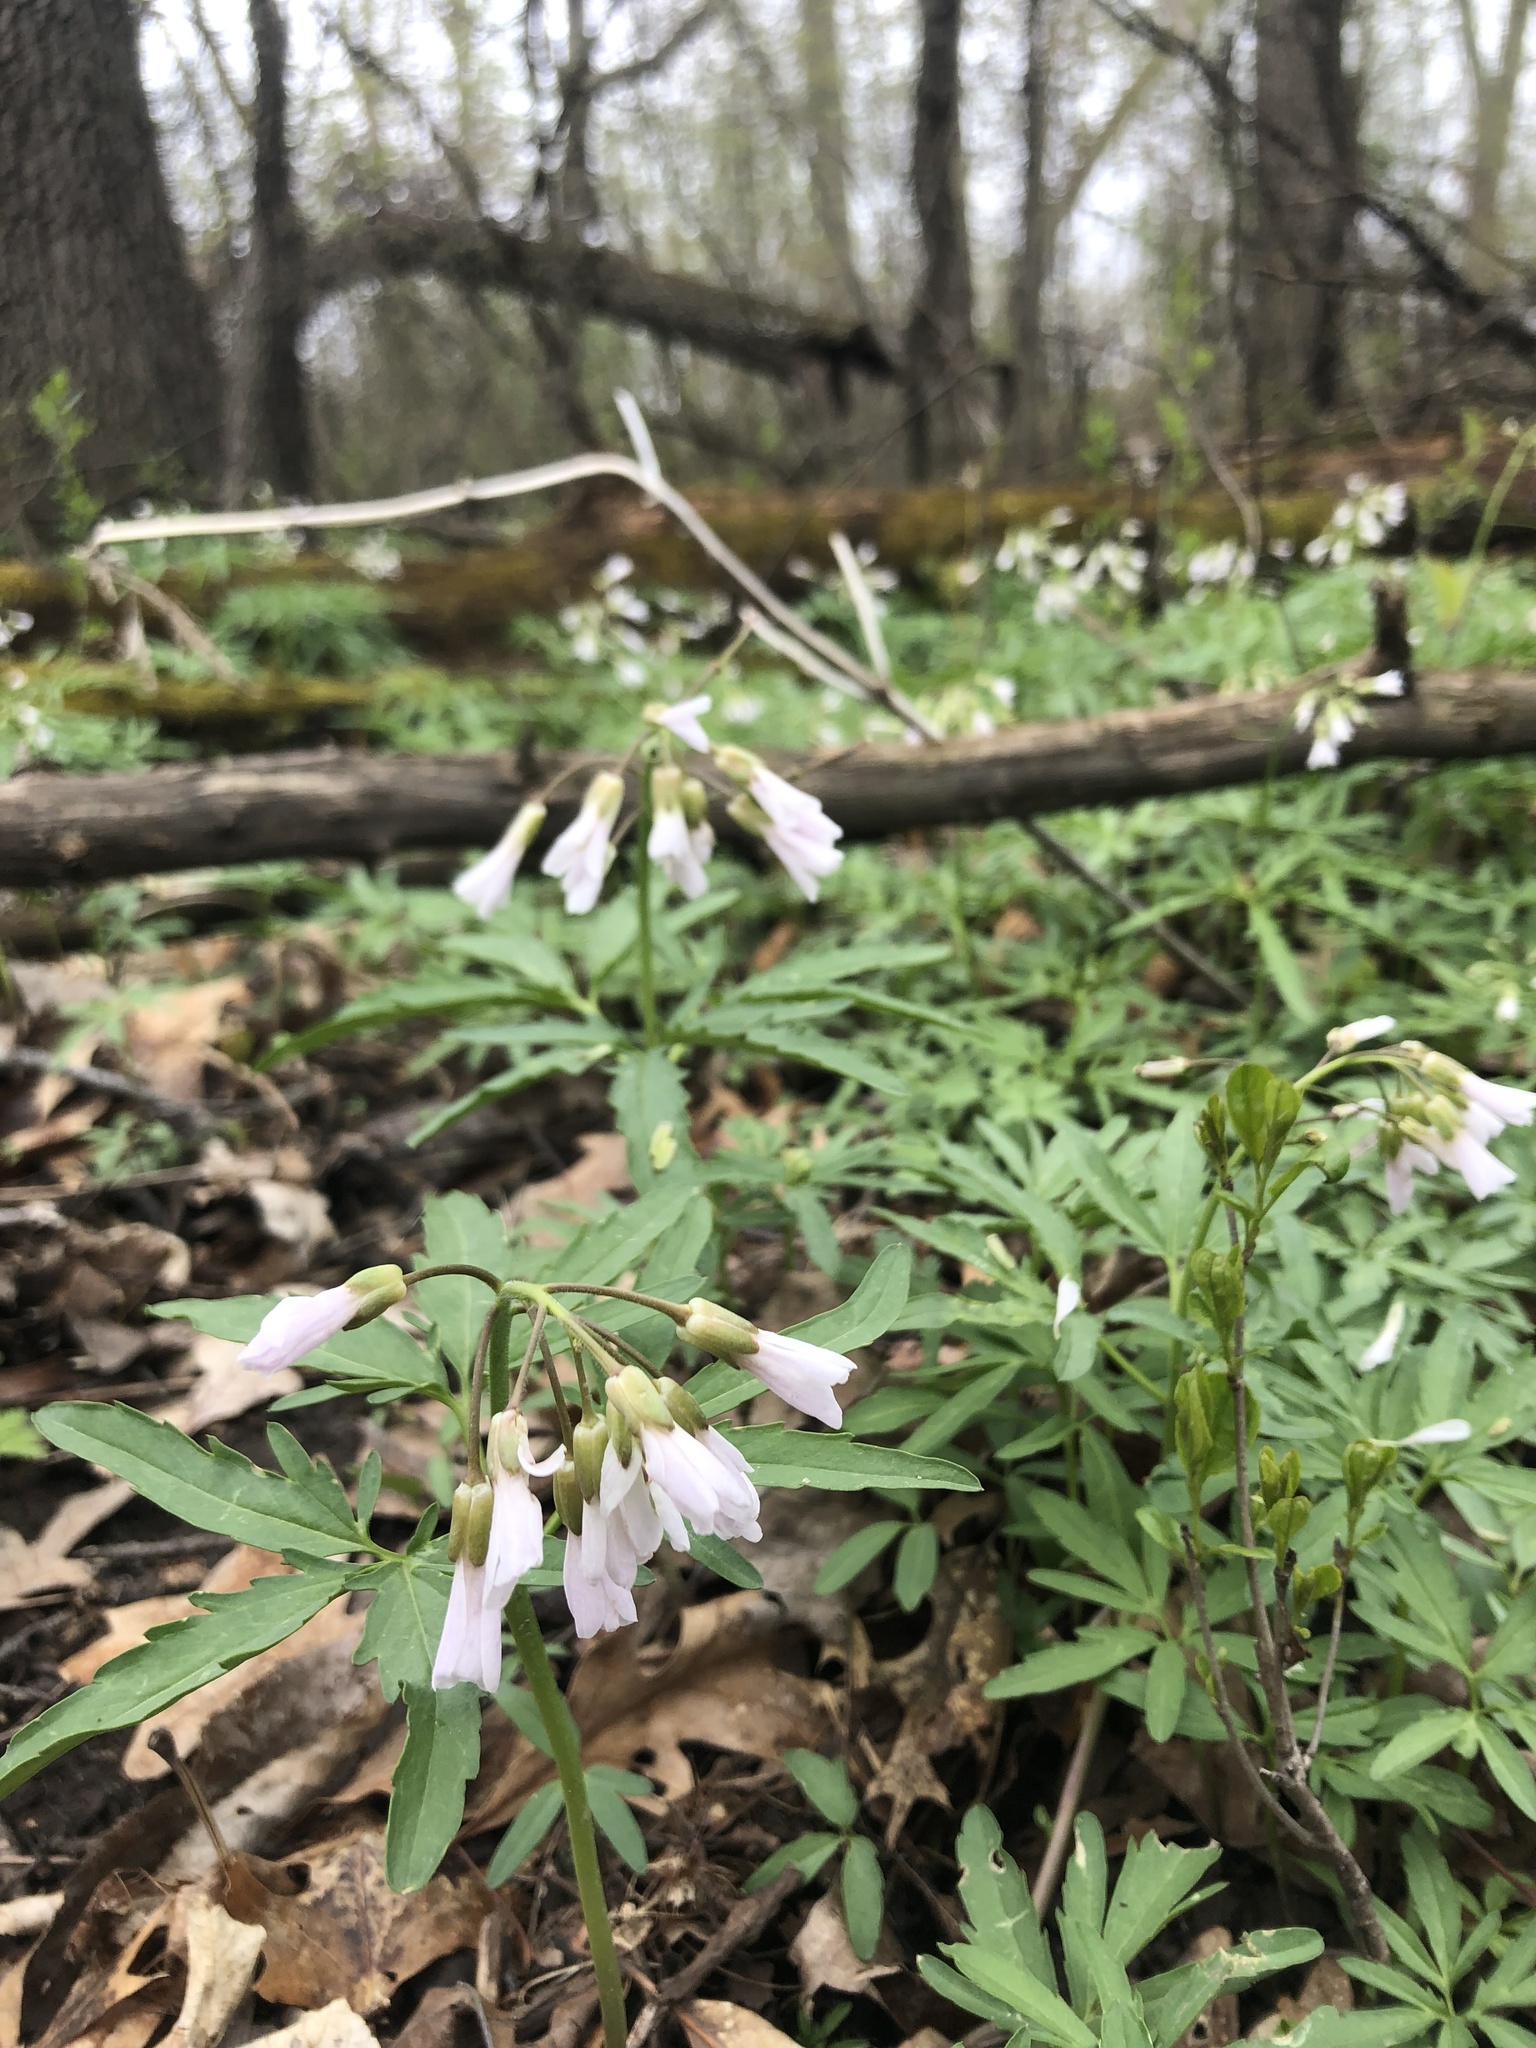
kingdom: Plantae
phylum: Tracheophyta
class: Magnoliopsida
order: Brassicales
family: Brassicaceae
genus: Cardamine
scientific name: Cardamine concatenata
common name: Cut-leaf toothcup
